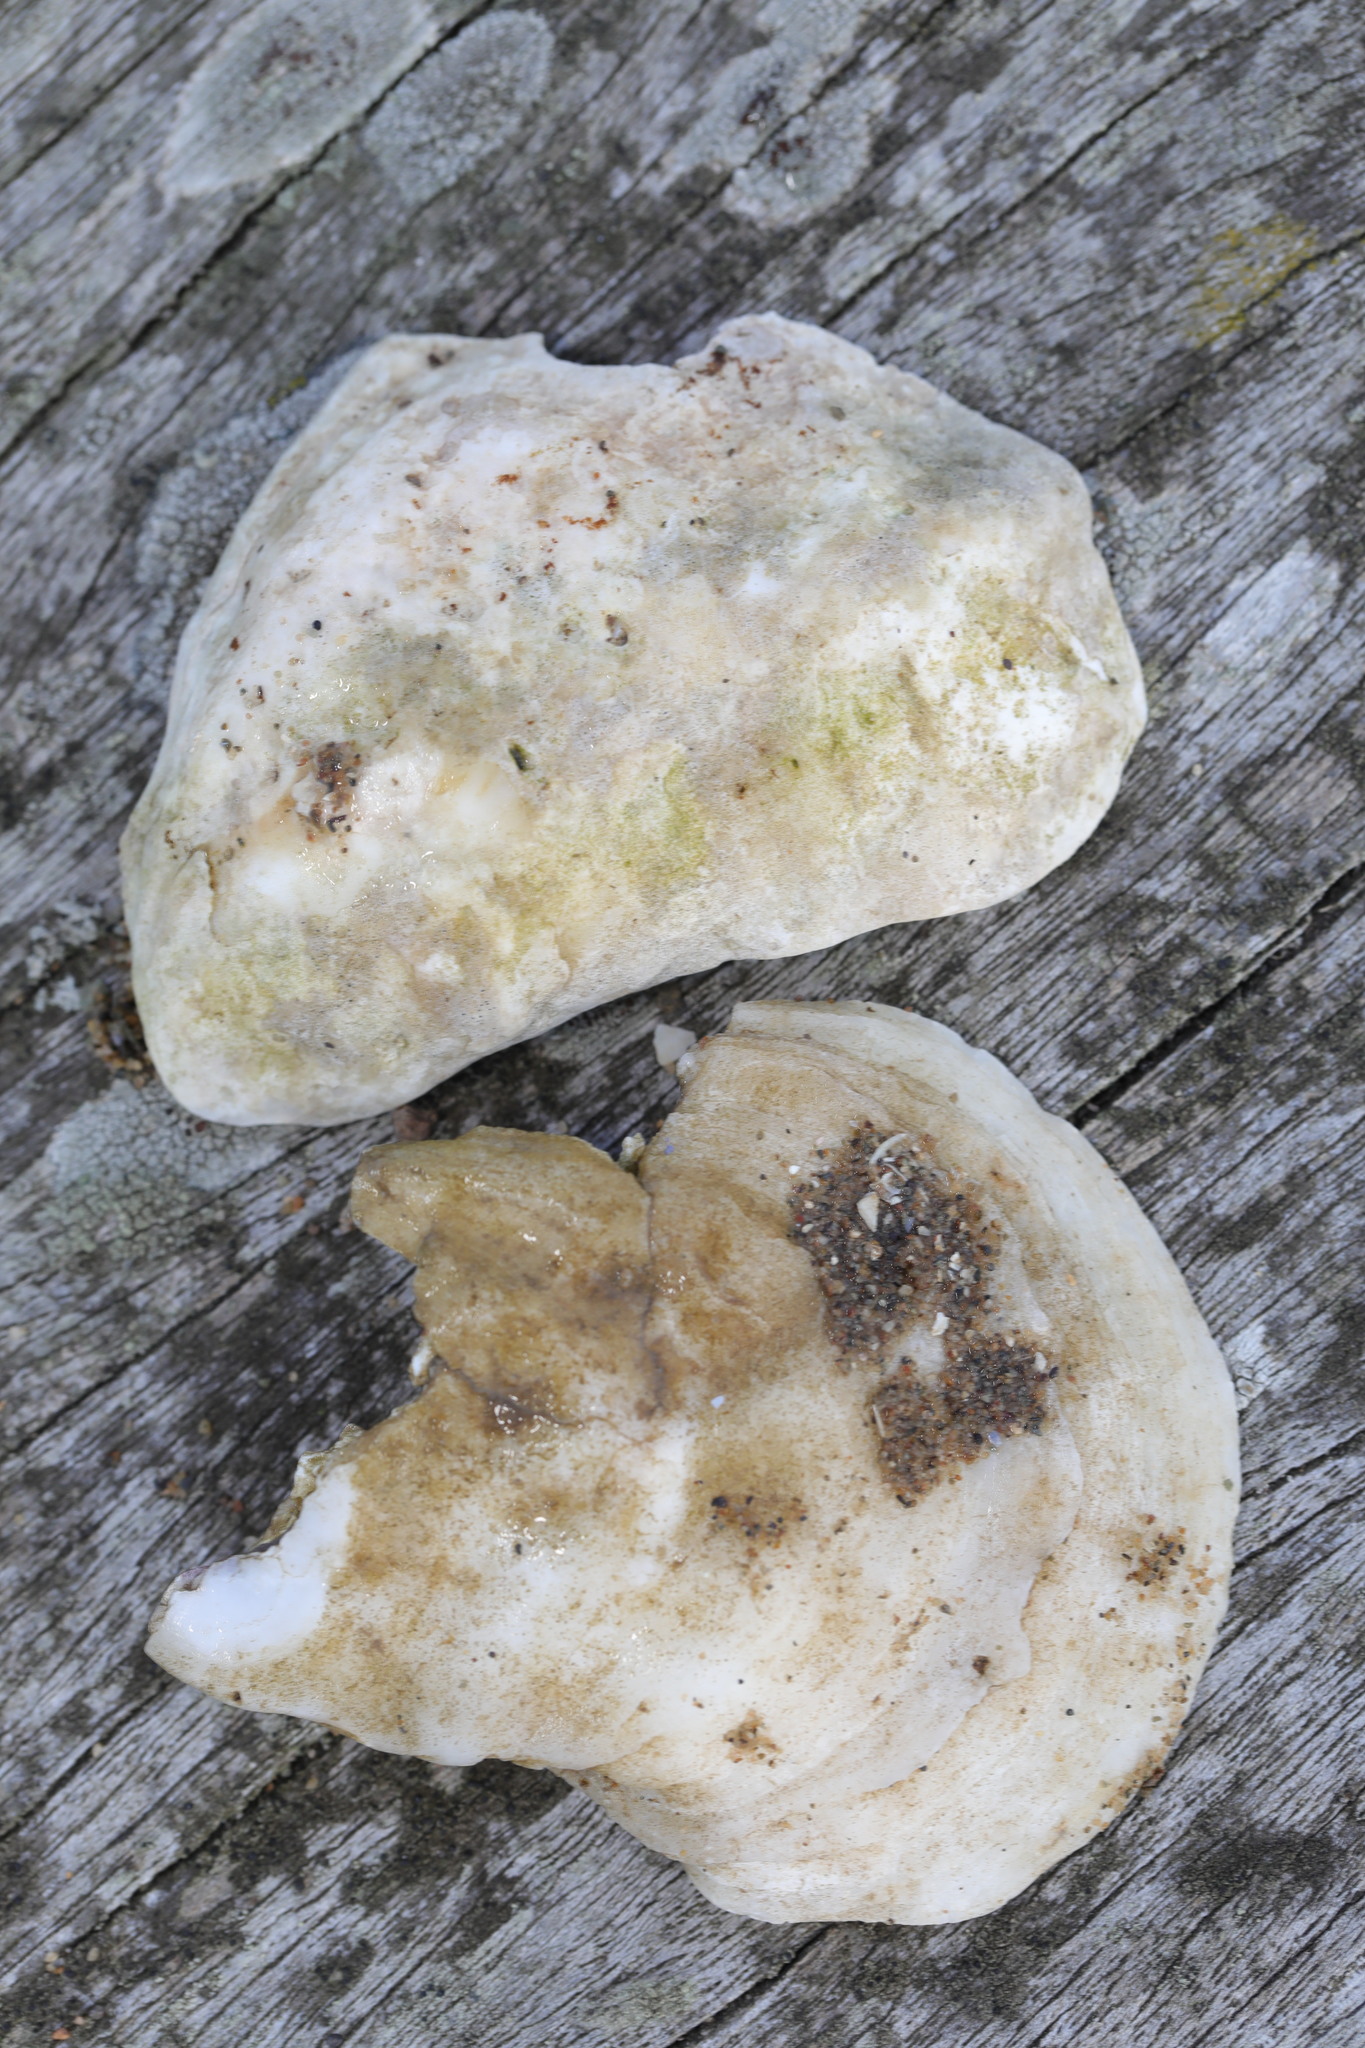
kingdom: Animalia
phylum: Mollusca
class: Bivalvia
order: Ostreida
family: Ostreidae
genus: Ostrea
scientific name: Ostrea edulis
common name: Flat oyster
